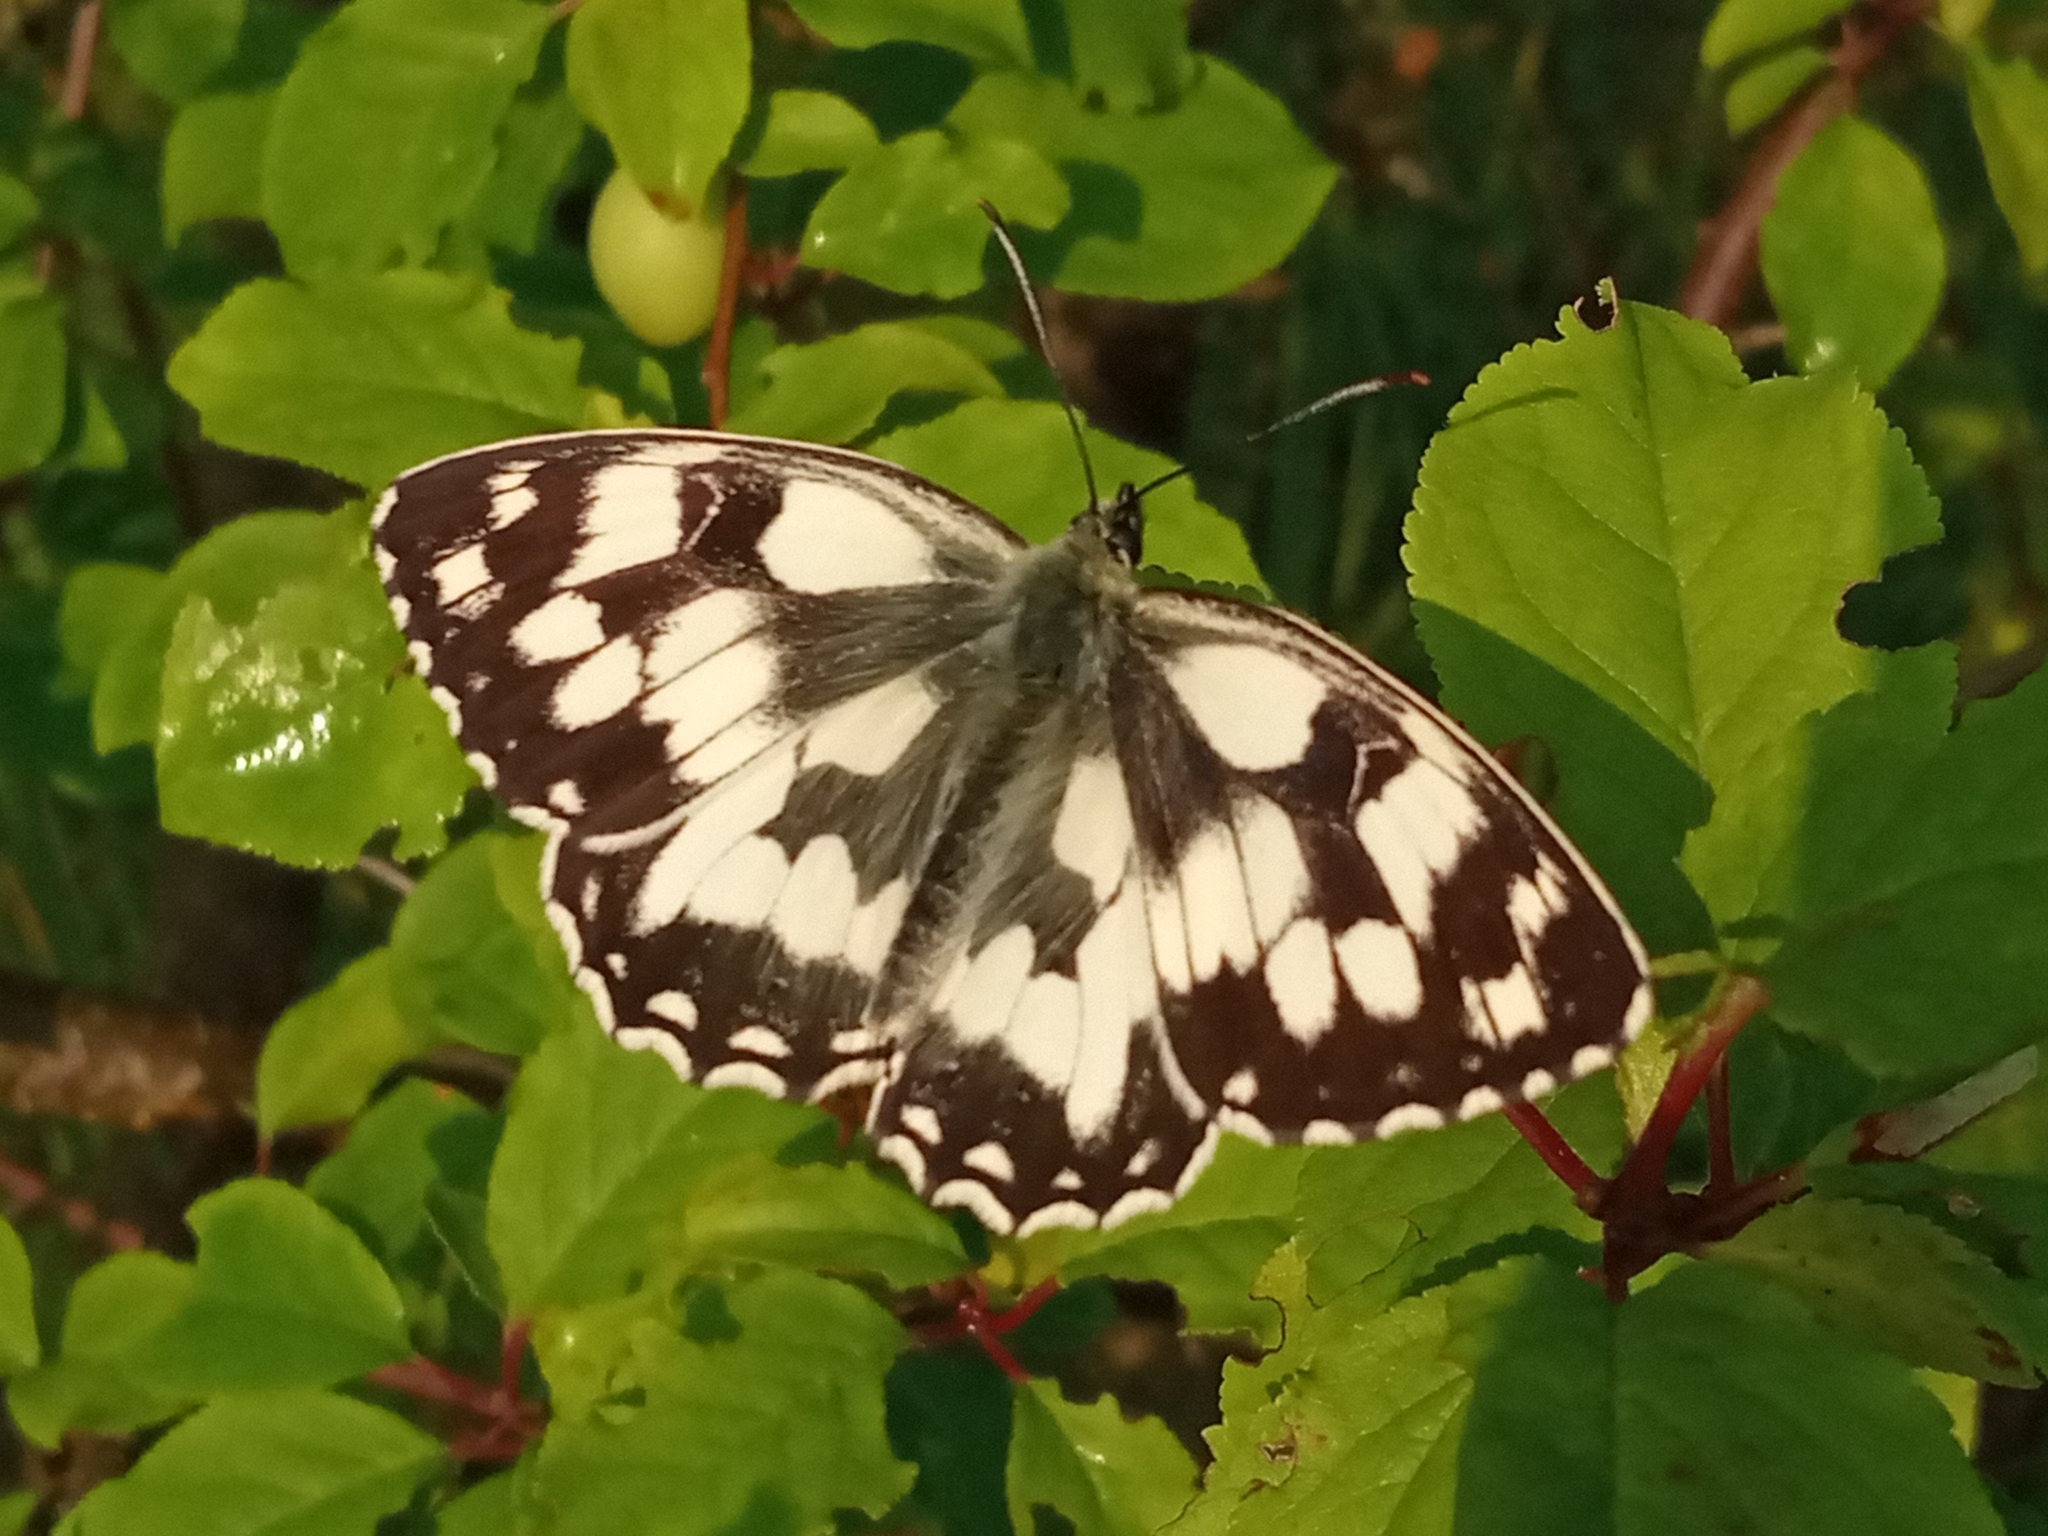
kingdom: Animalia
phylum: Arthropoda
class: Insecta
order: Lepidoptera
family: Nymphalidae
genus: Melanargia
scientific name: Melanargia galathea
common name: Marbled white
